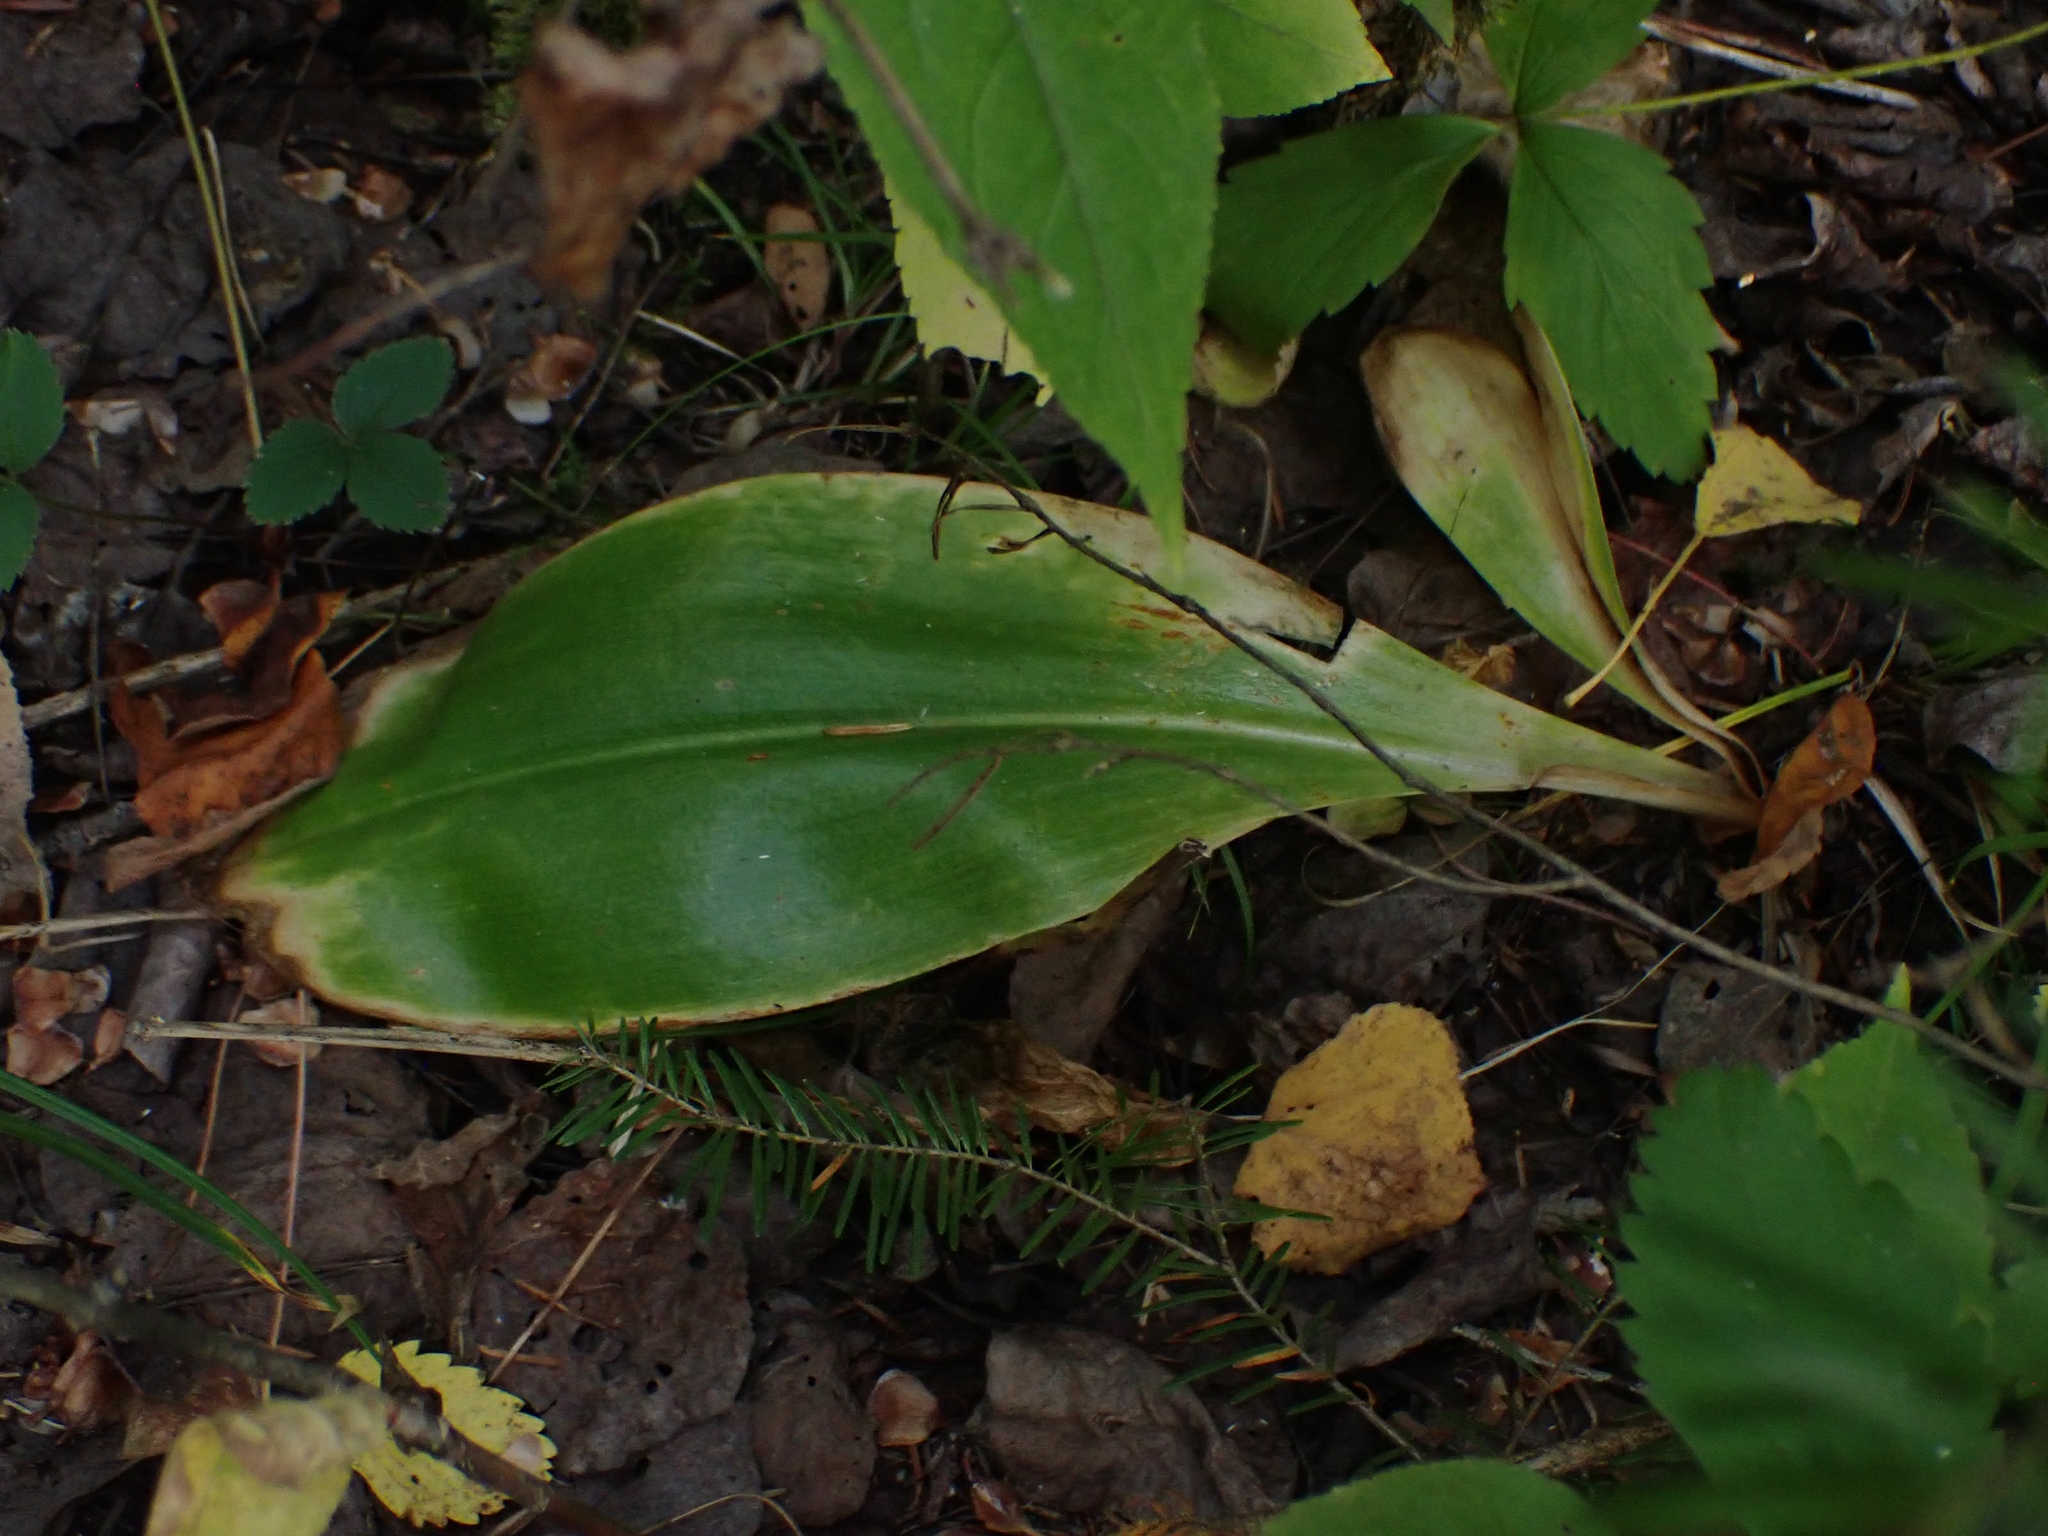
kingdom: Plantae
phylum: Tracheophyta
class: Liliopsida
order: Liliales
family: Liliaceae
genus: Clintonia
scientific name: Clintonia borealis
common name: Yellow clintonia
